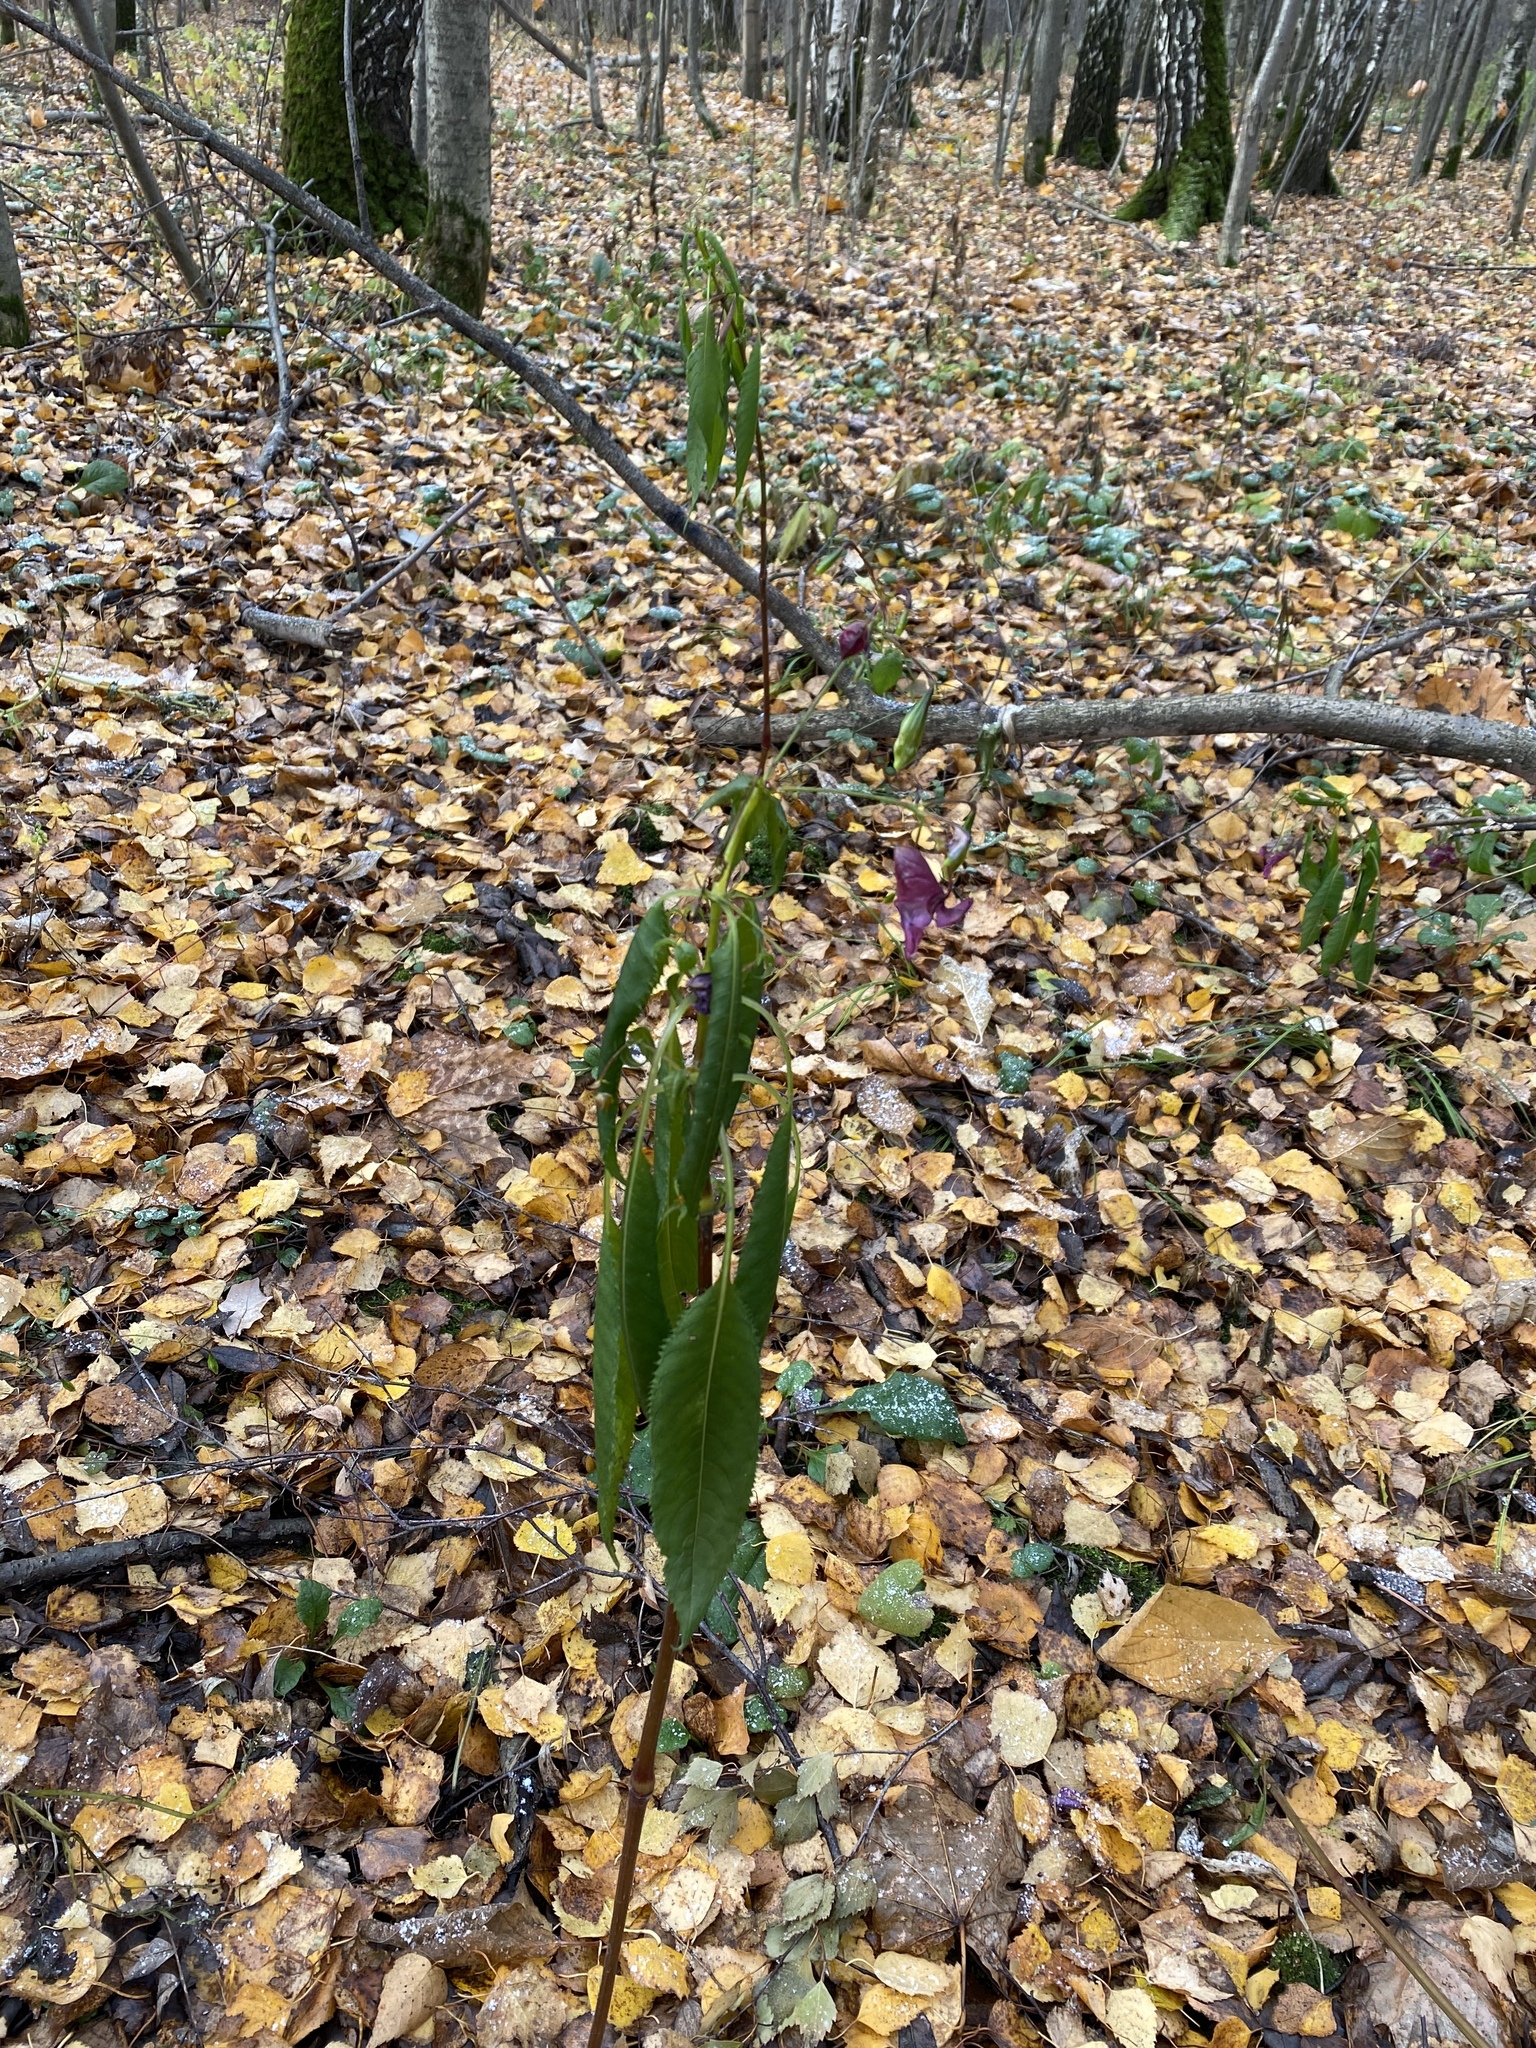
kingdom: Plantae
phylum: Tracheophyta
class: Magnoliopsida
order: Ericales
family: Balsaminaceae
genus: Impatiens
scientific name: Impatiens glandulifera
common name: Himalayan balsam
